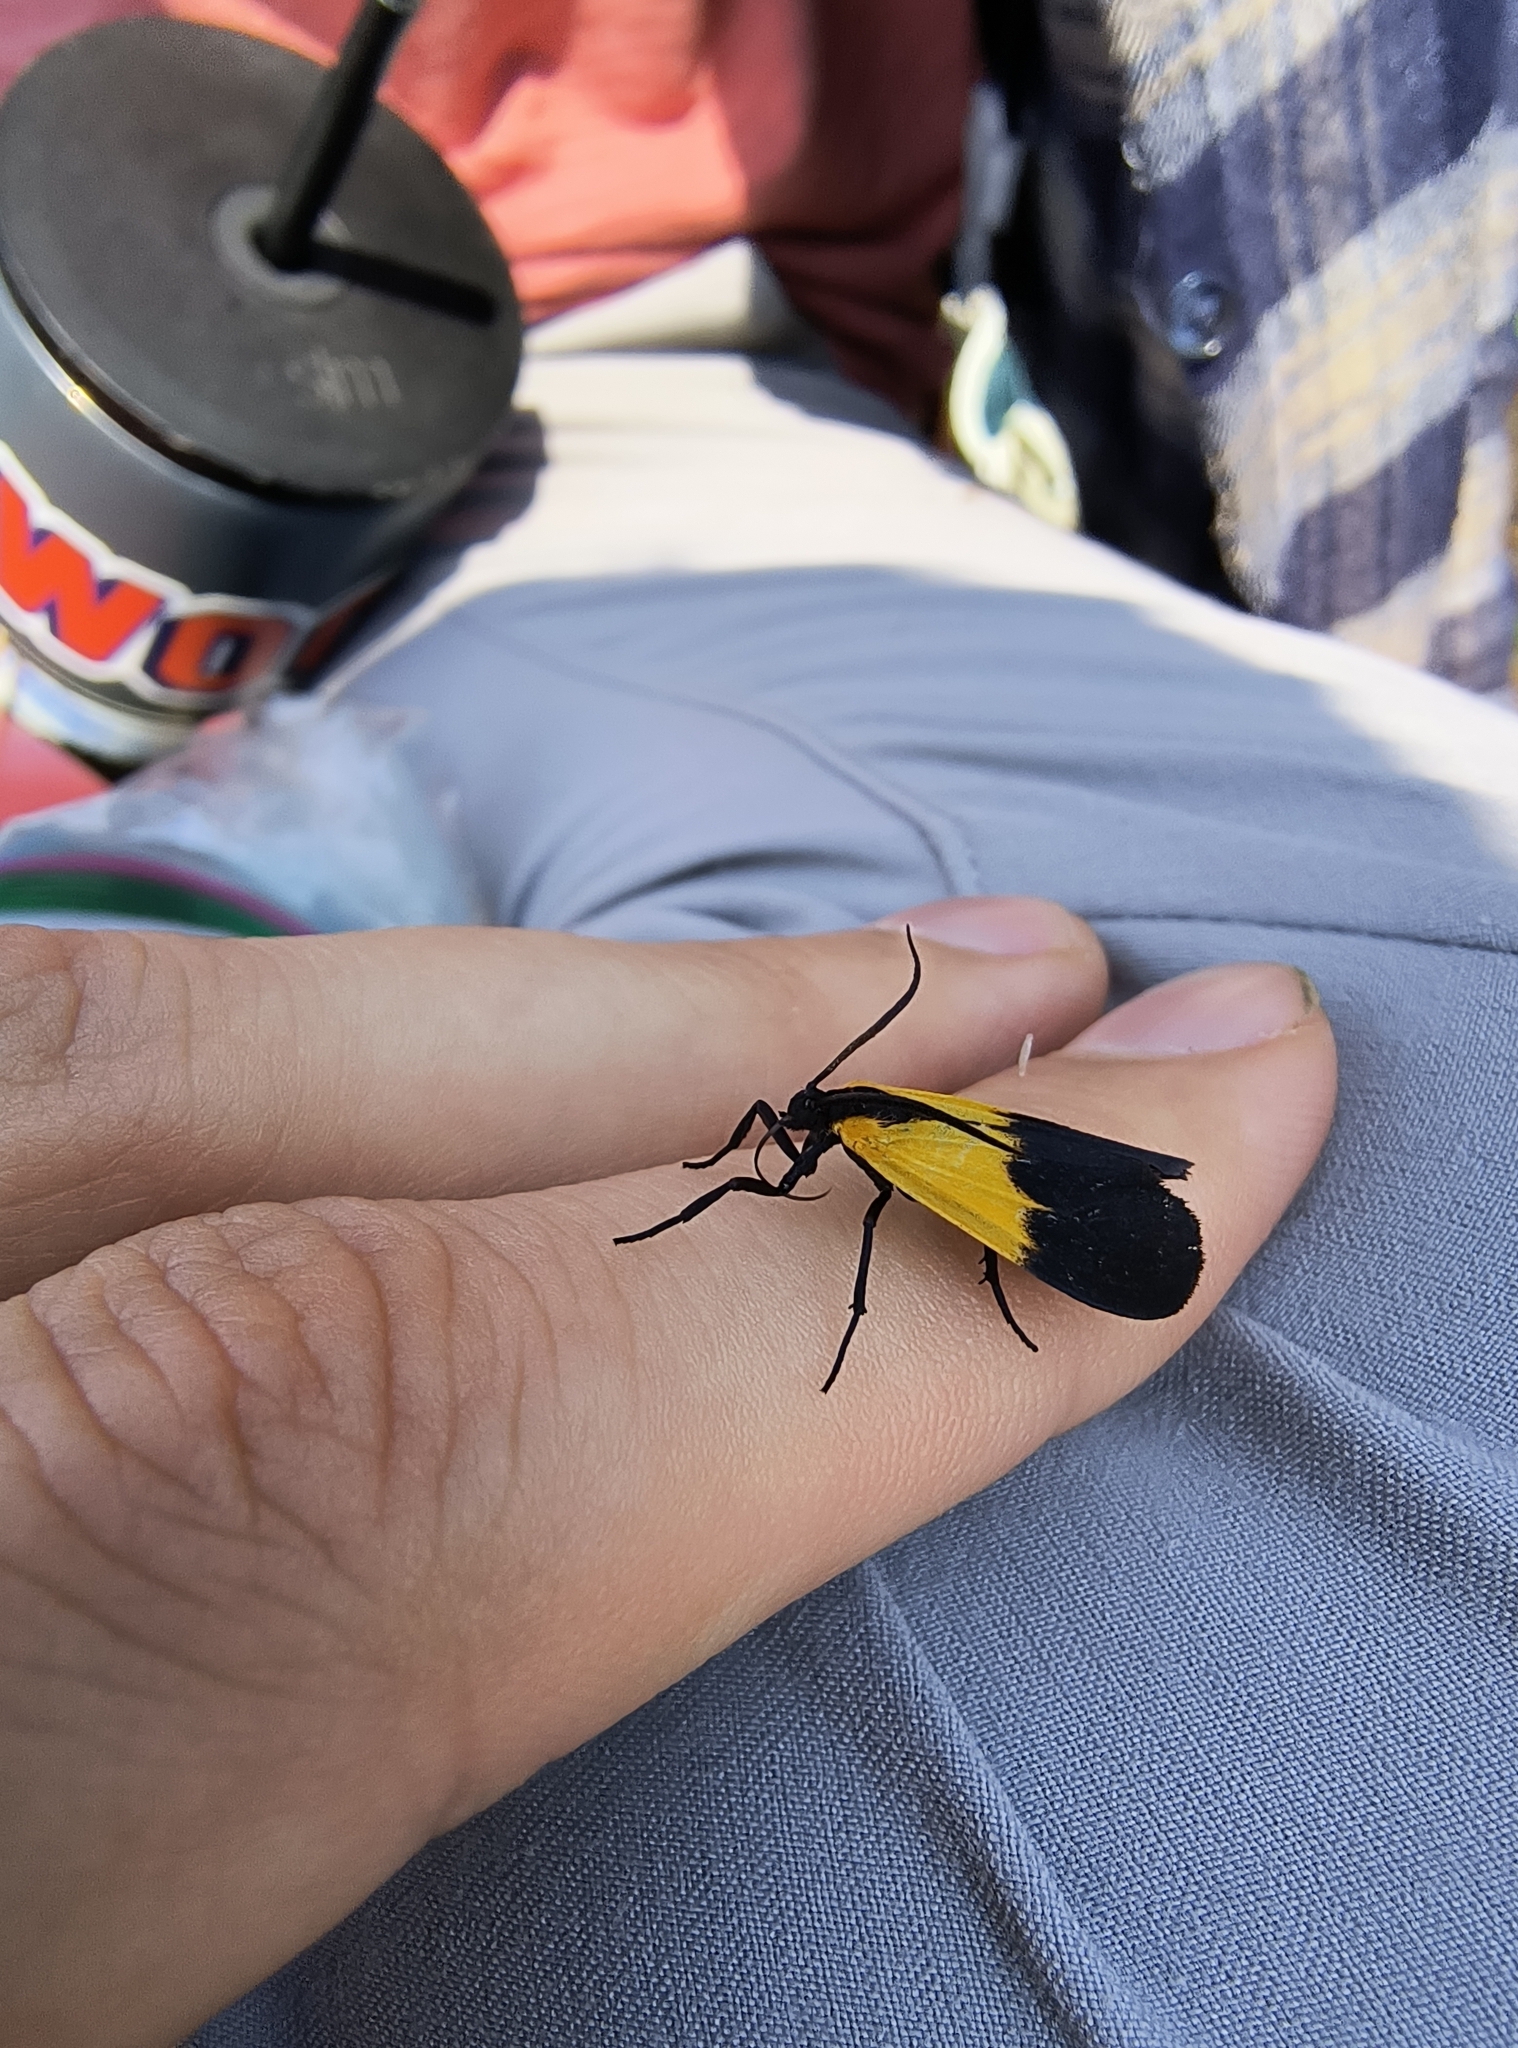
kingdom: Animalia
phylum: Arthropoda
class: Insecta
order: Lepidoptera
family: Erebidae
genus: Lycomorpha
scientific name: Lycomorpha pholus
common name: Black-and-yellow lichen moth
